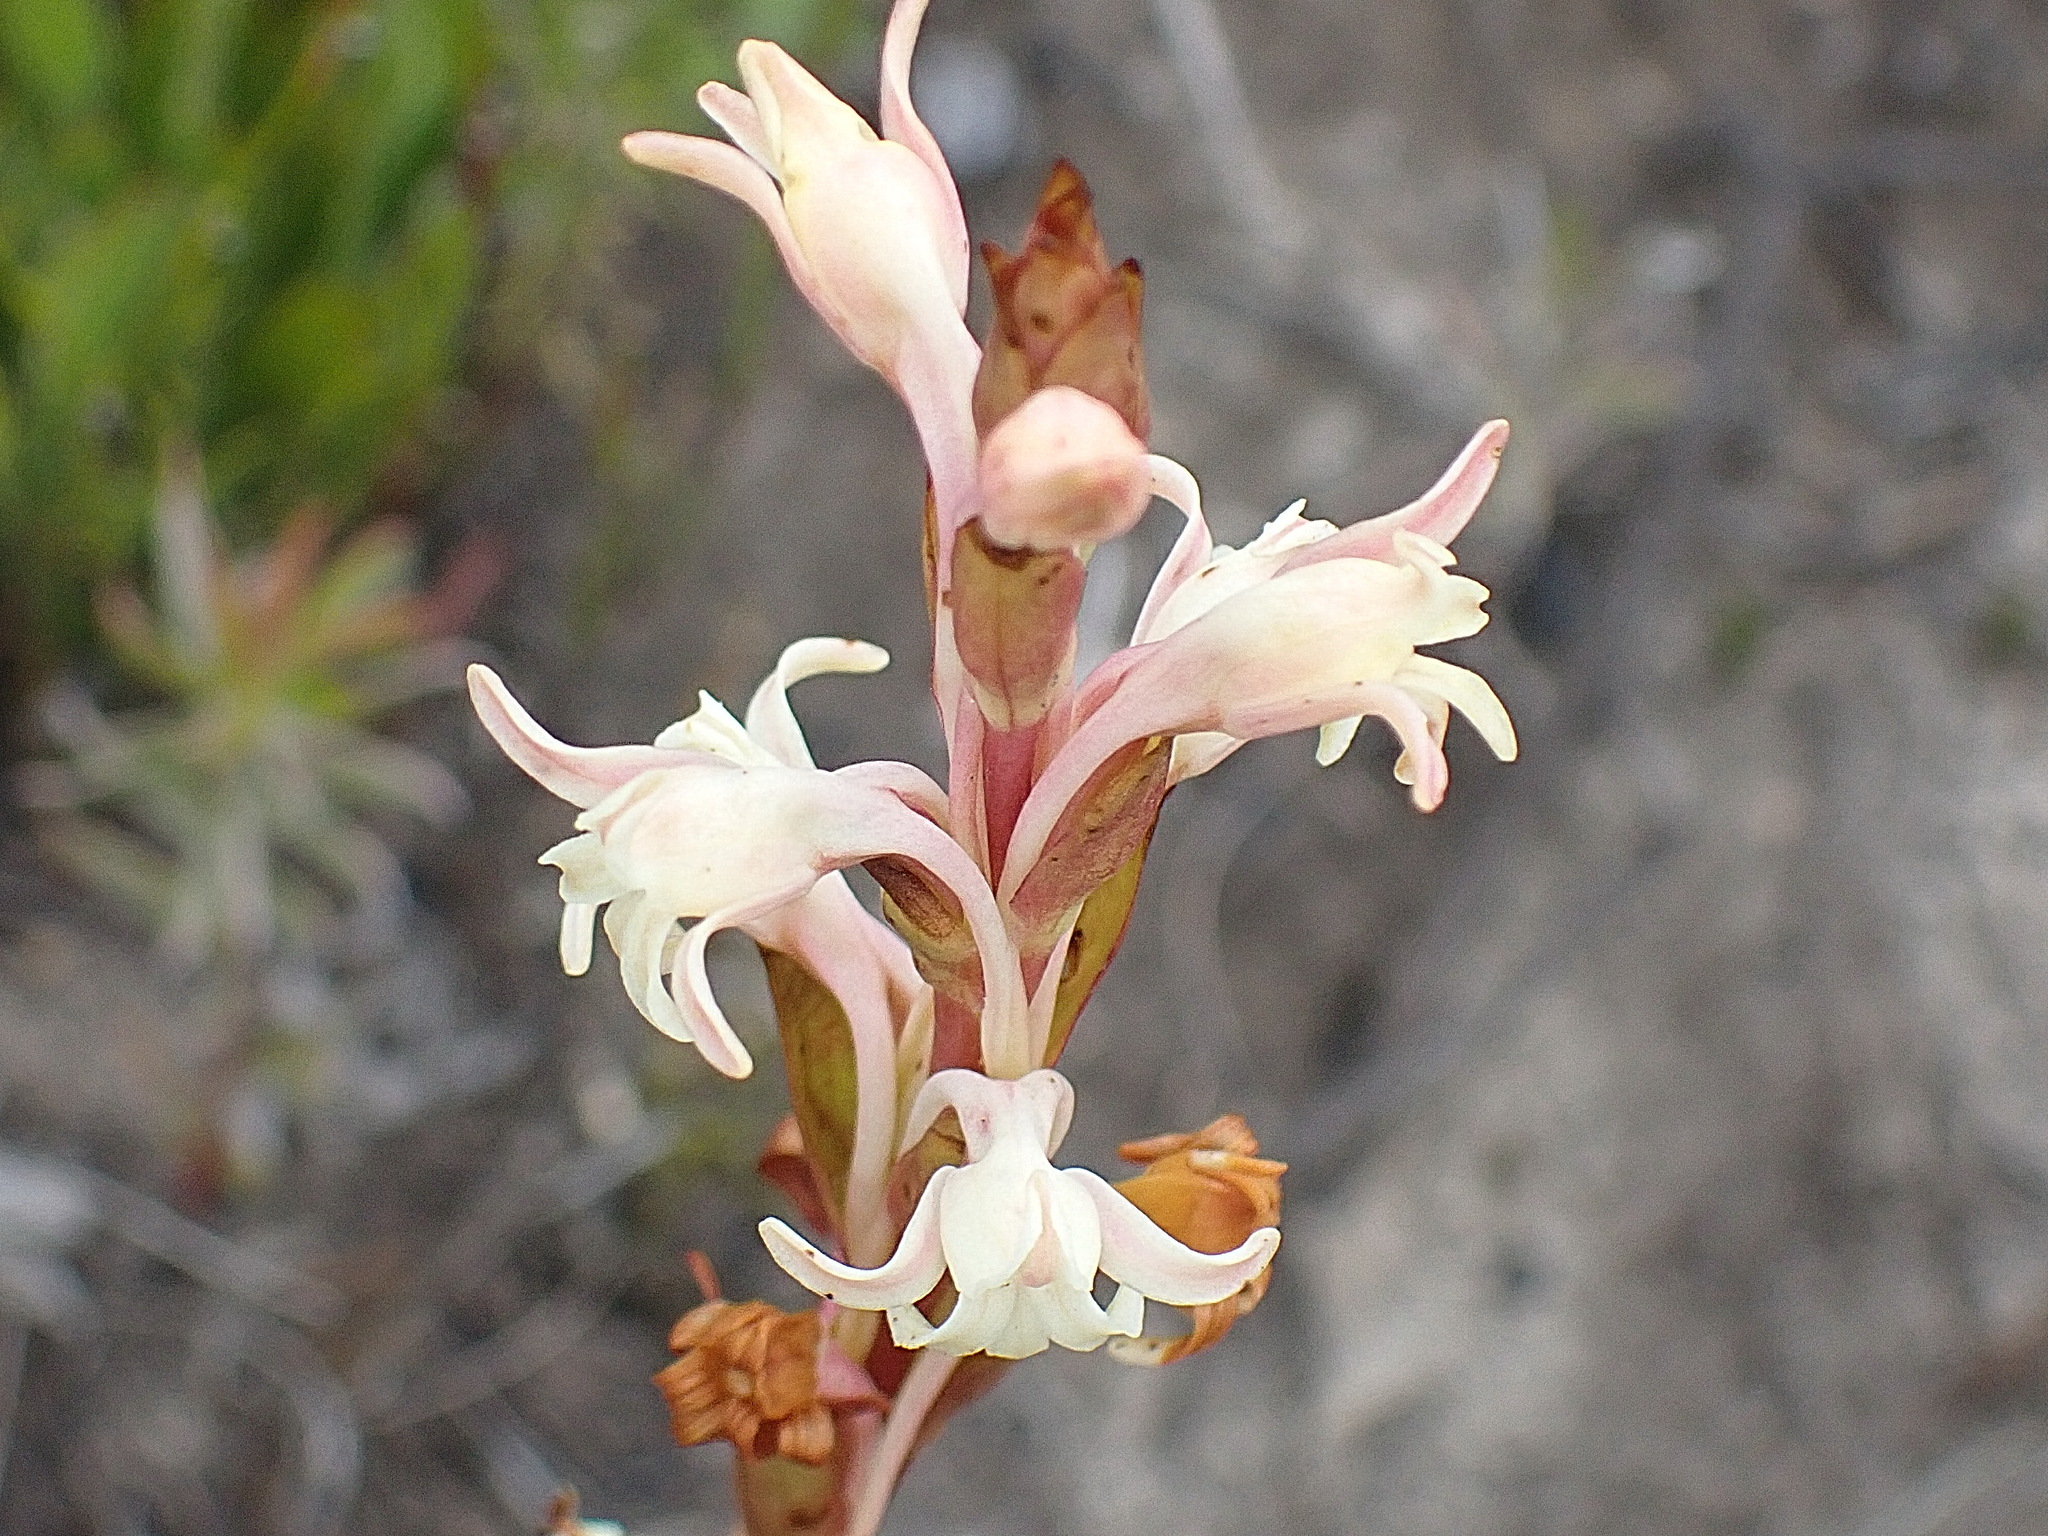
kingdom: Plantae
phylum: Tracheophyta
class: Liliopsida
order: Asparagales
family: Orchidaceae
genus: Satyrium
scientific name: Satyrium stenopetalum
